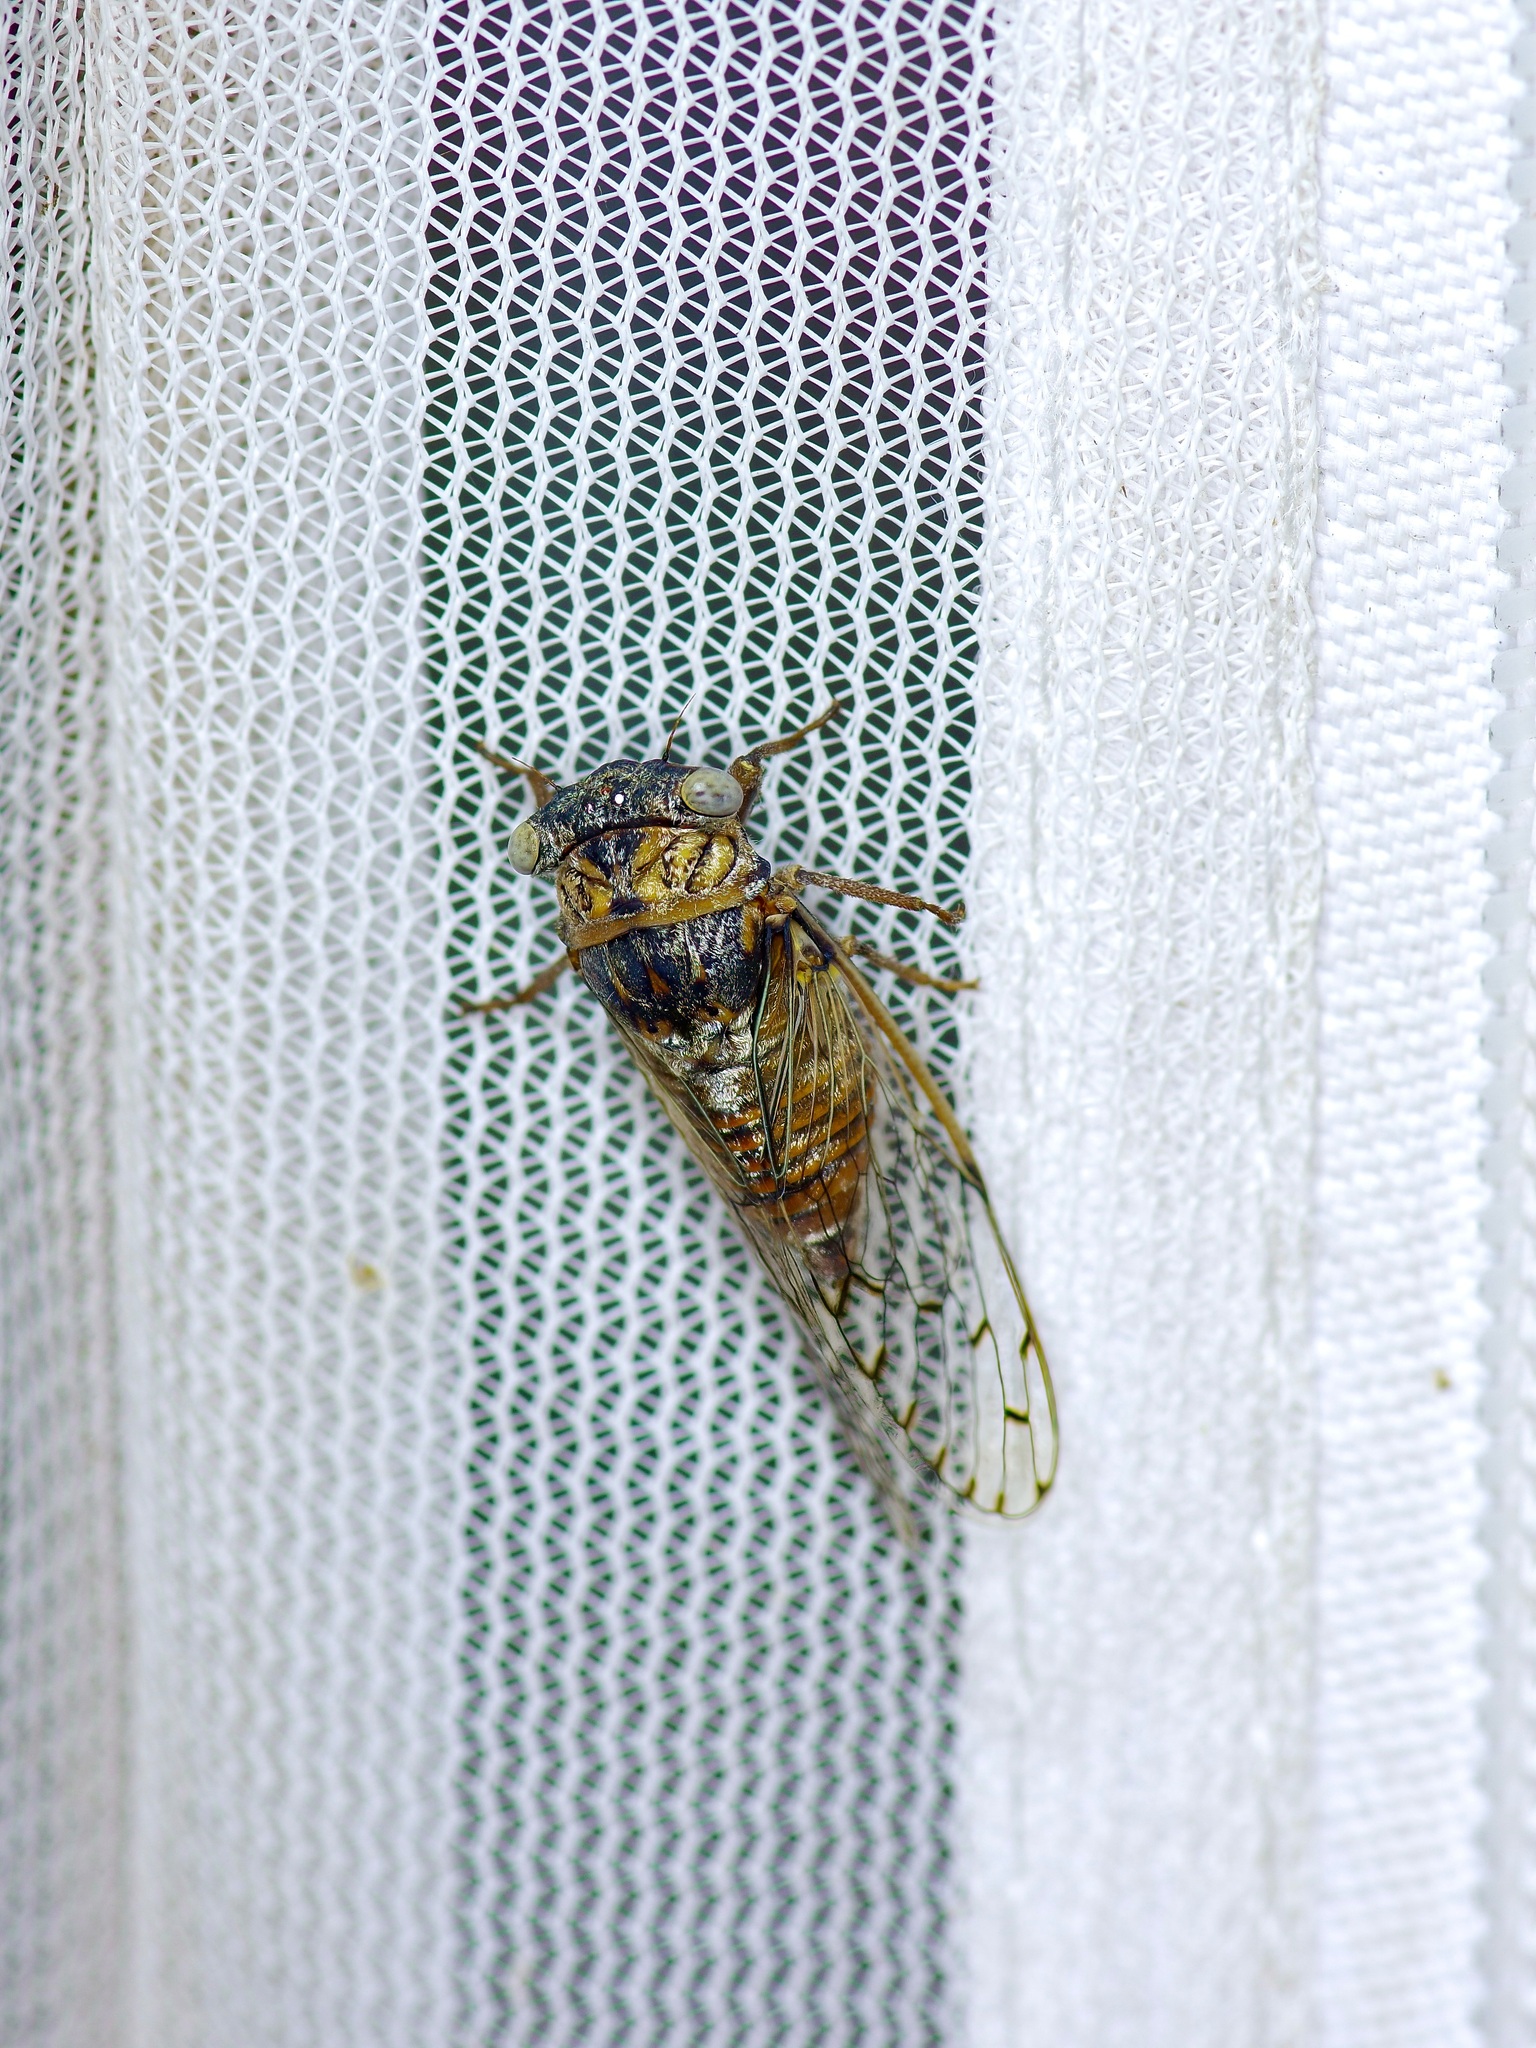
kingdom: Animalia
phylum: Arthropoda
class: Insecta
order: Hemiptera
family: Cicadidae
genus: Pacarina
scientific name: Pacarina puella
